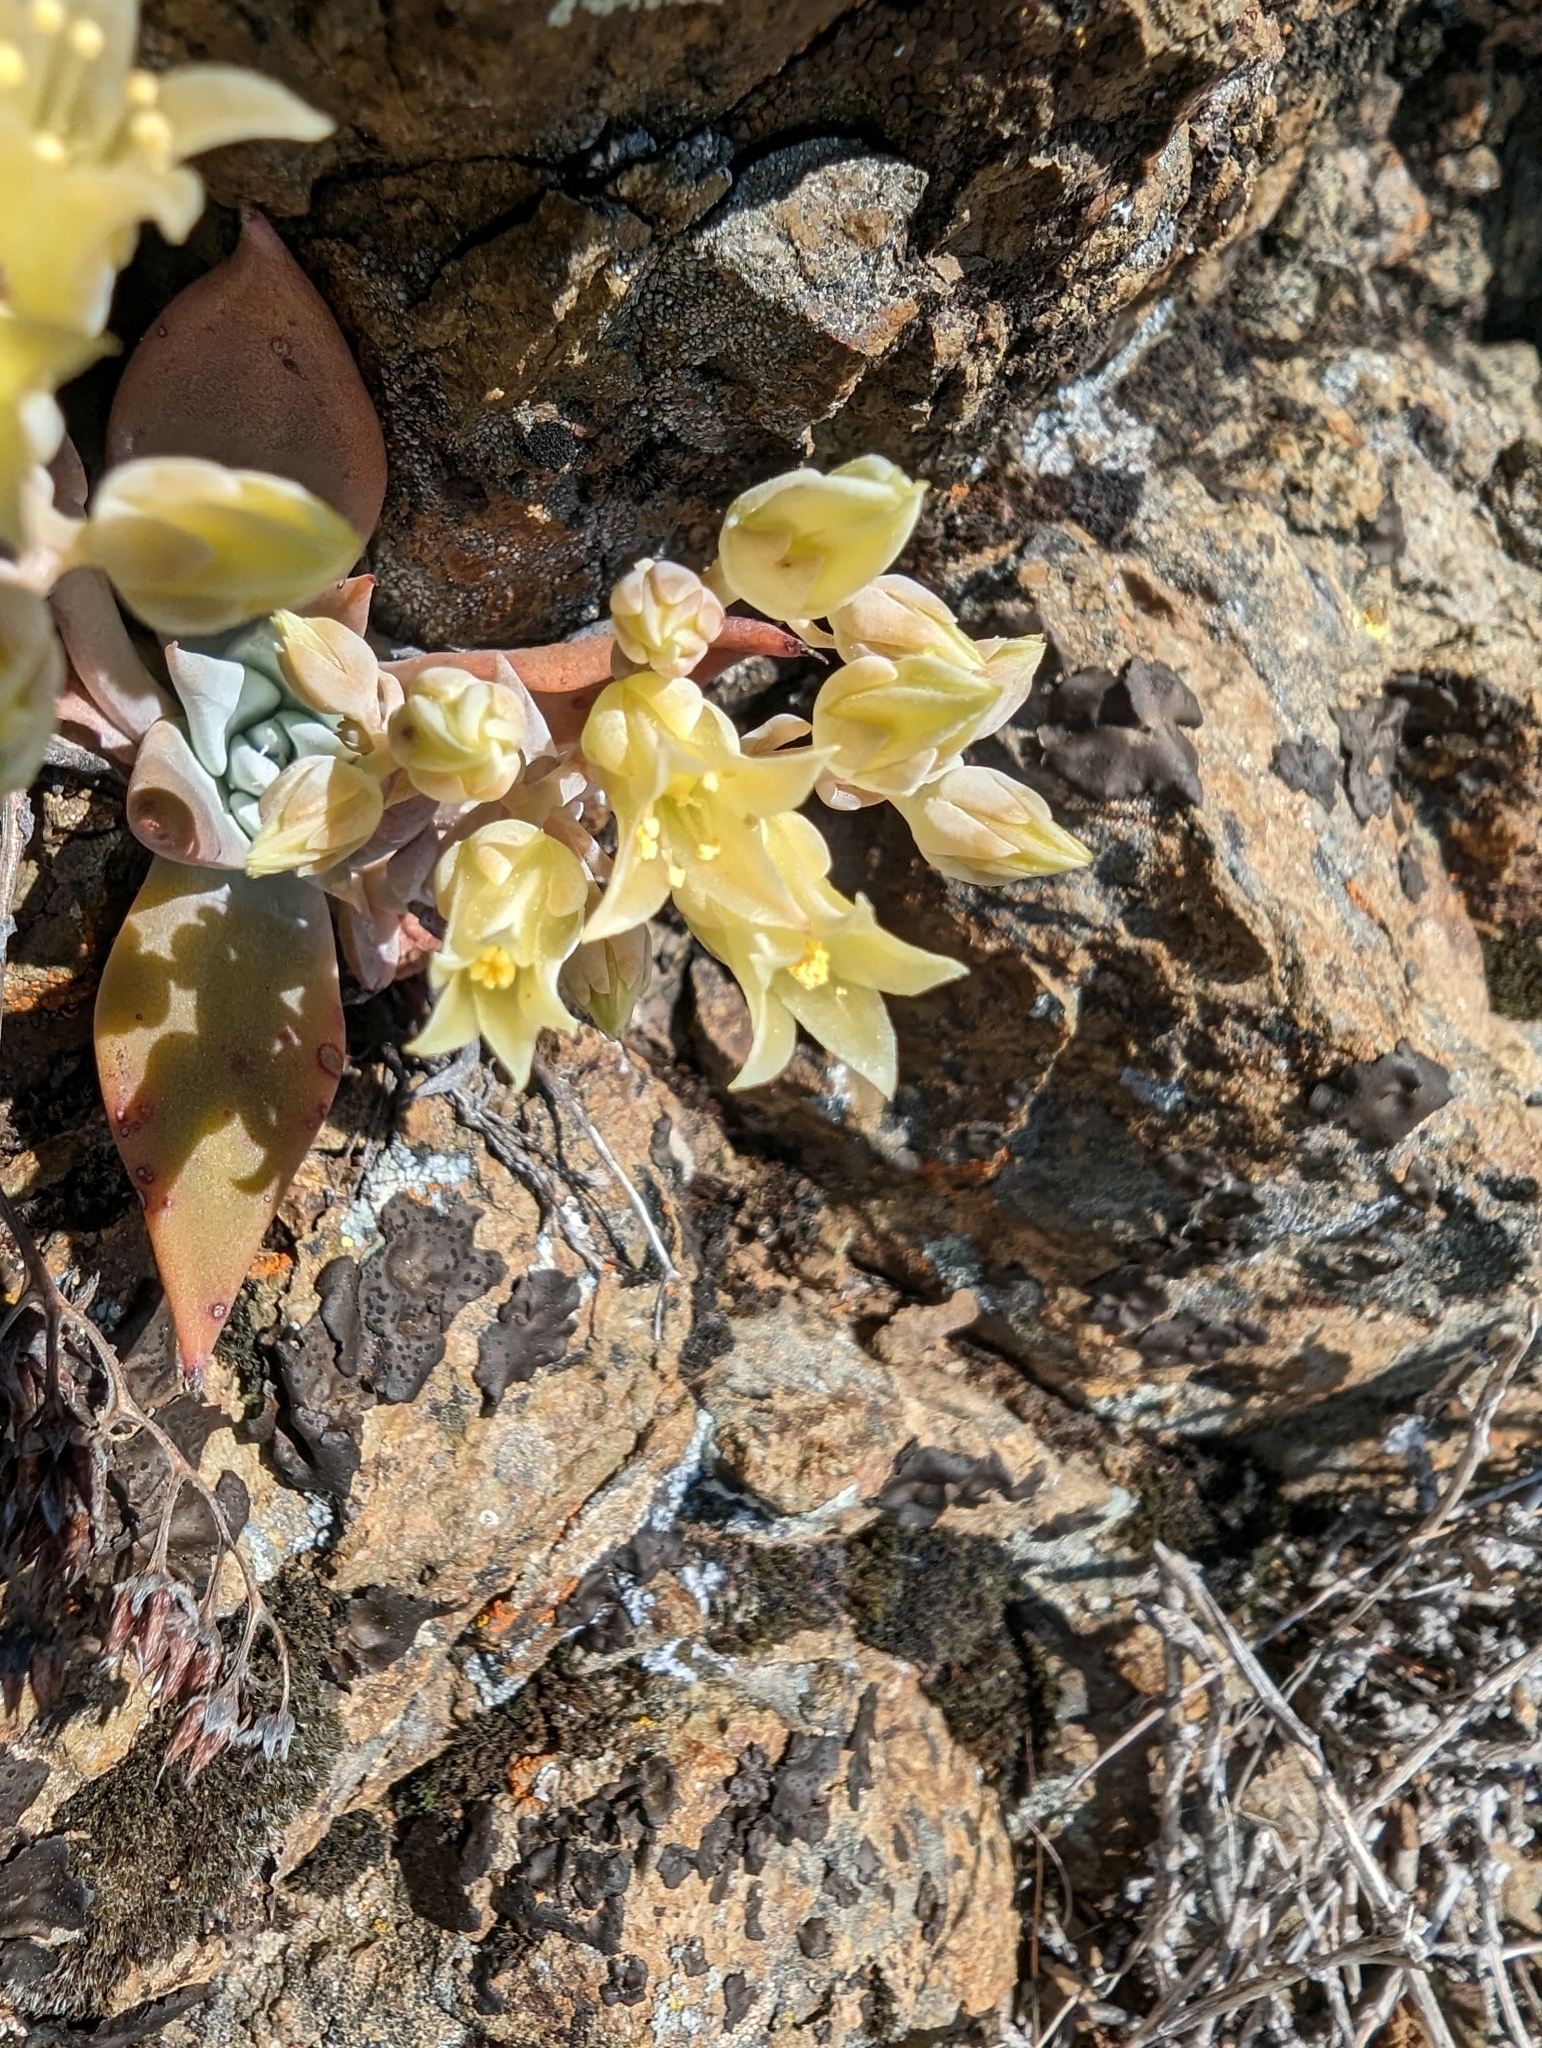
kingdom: Plantae
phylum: Tracheophyta
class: Magnoliopsida
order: Saxifragales
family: Crassulaceae
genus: Dudleya
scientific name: Dudleya cymosa
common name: Canyon dudleya
